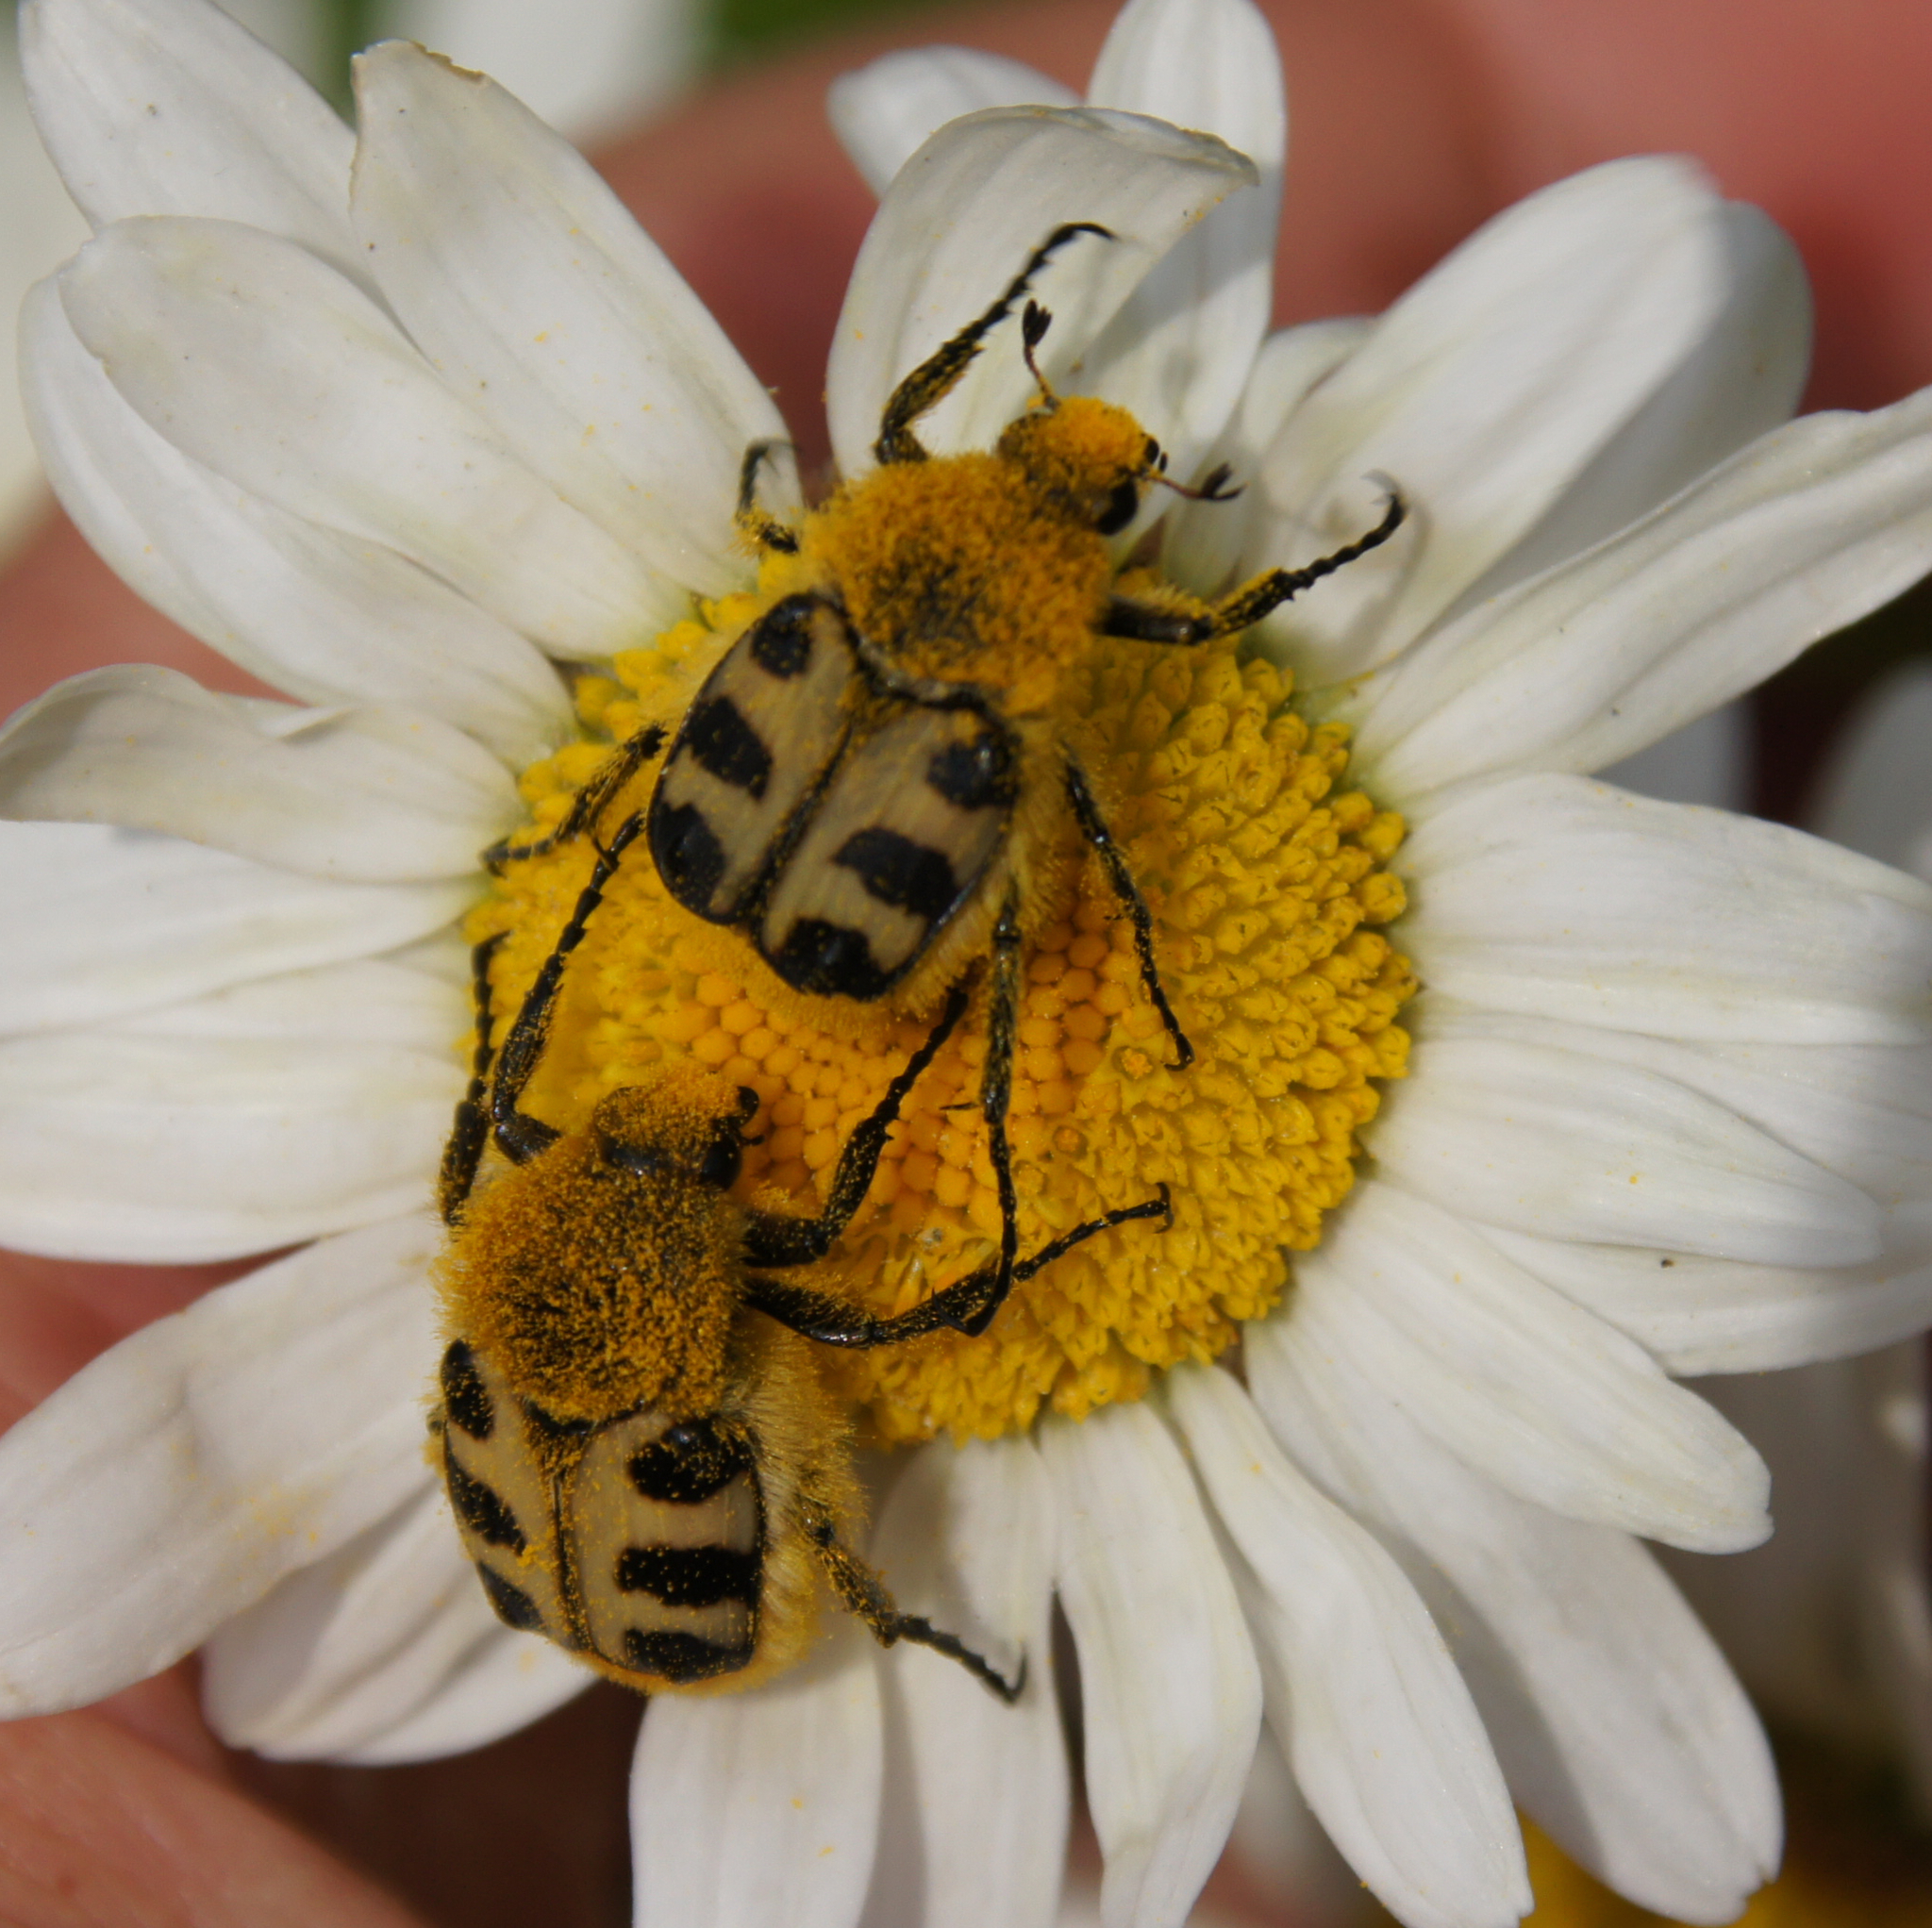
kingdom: Animalia
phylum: Arthropoda
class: Insecta
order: Coleoptera
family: Scarabaeidae
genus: Trichius
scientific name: Trichius gallicus
